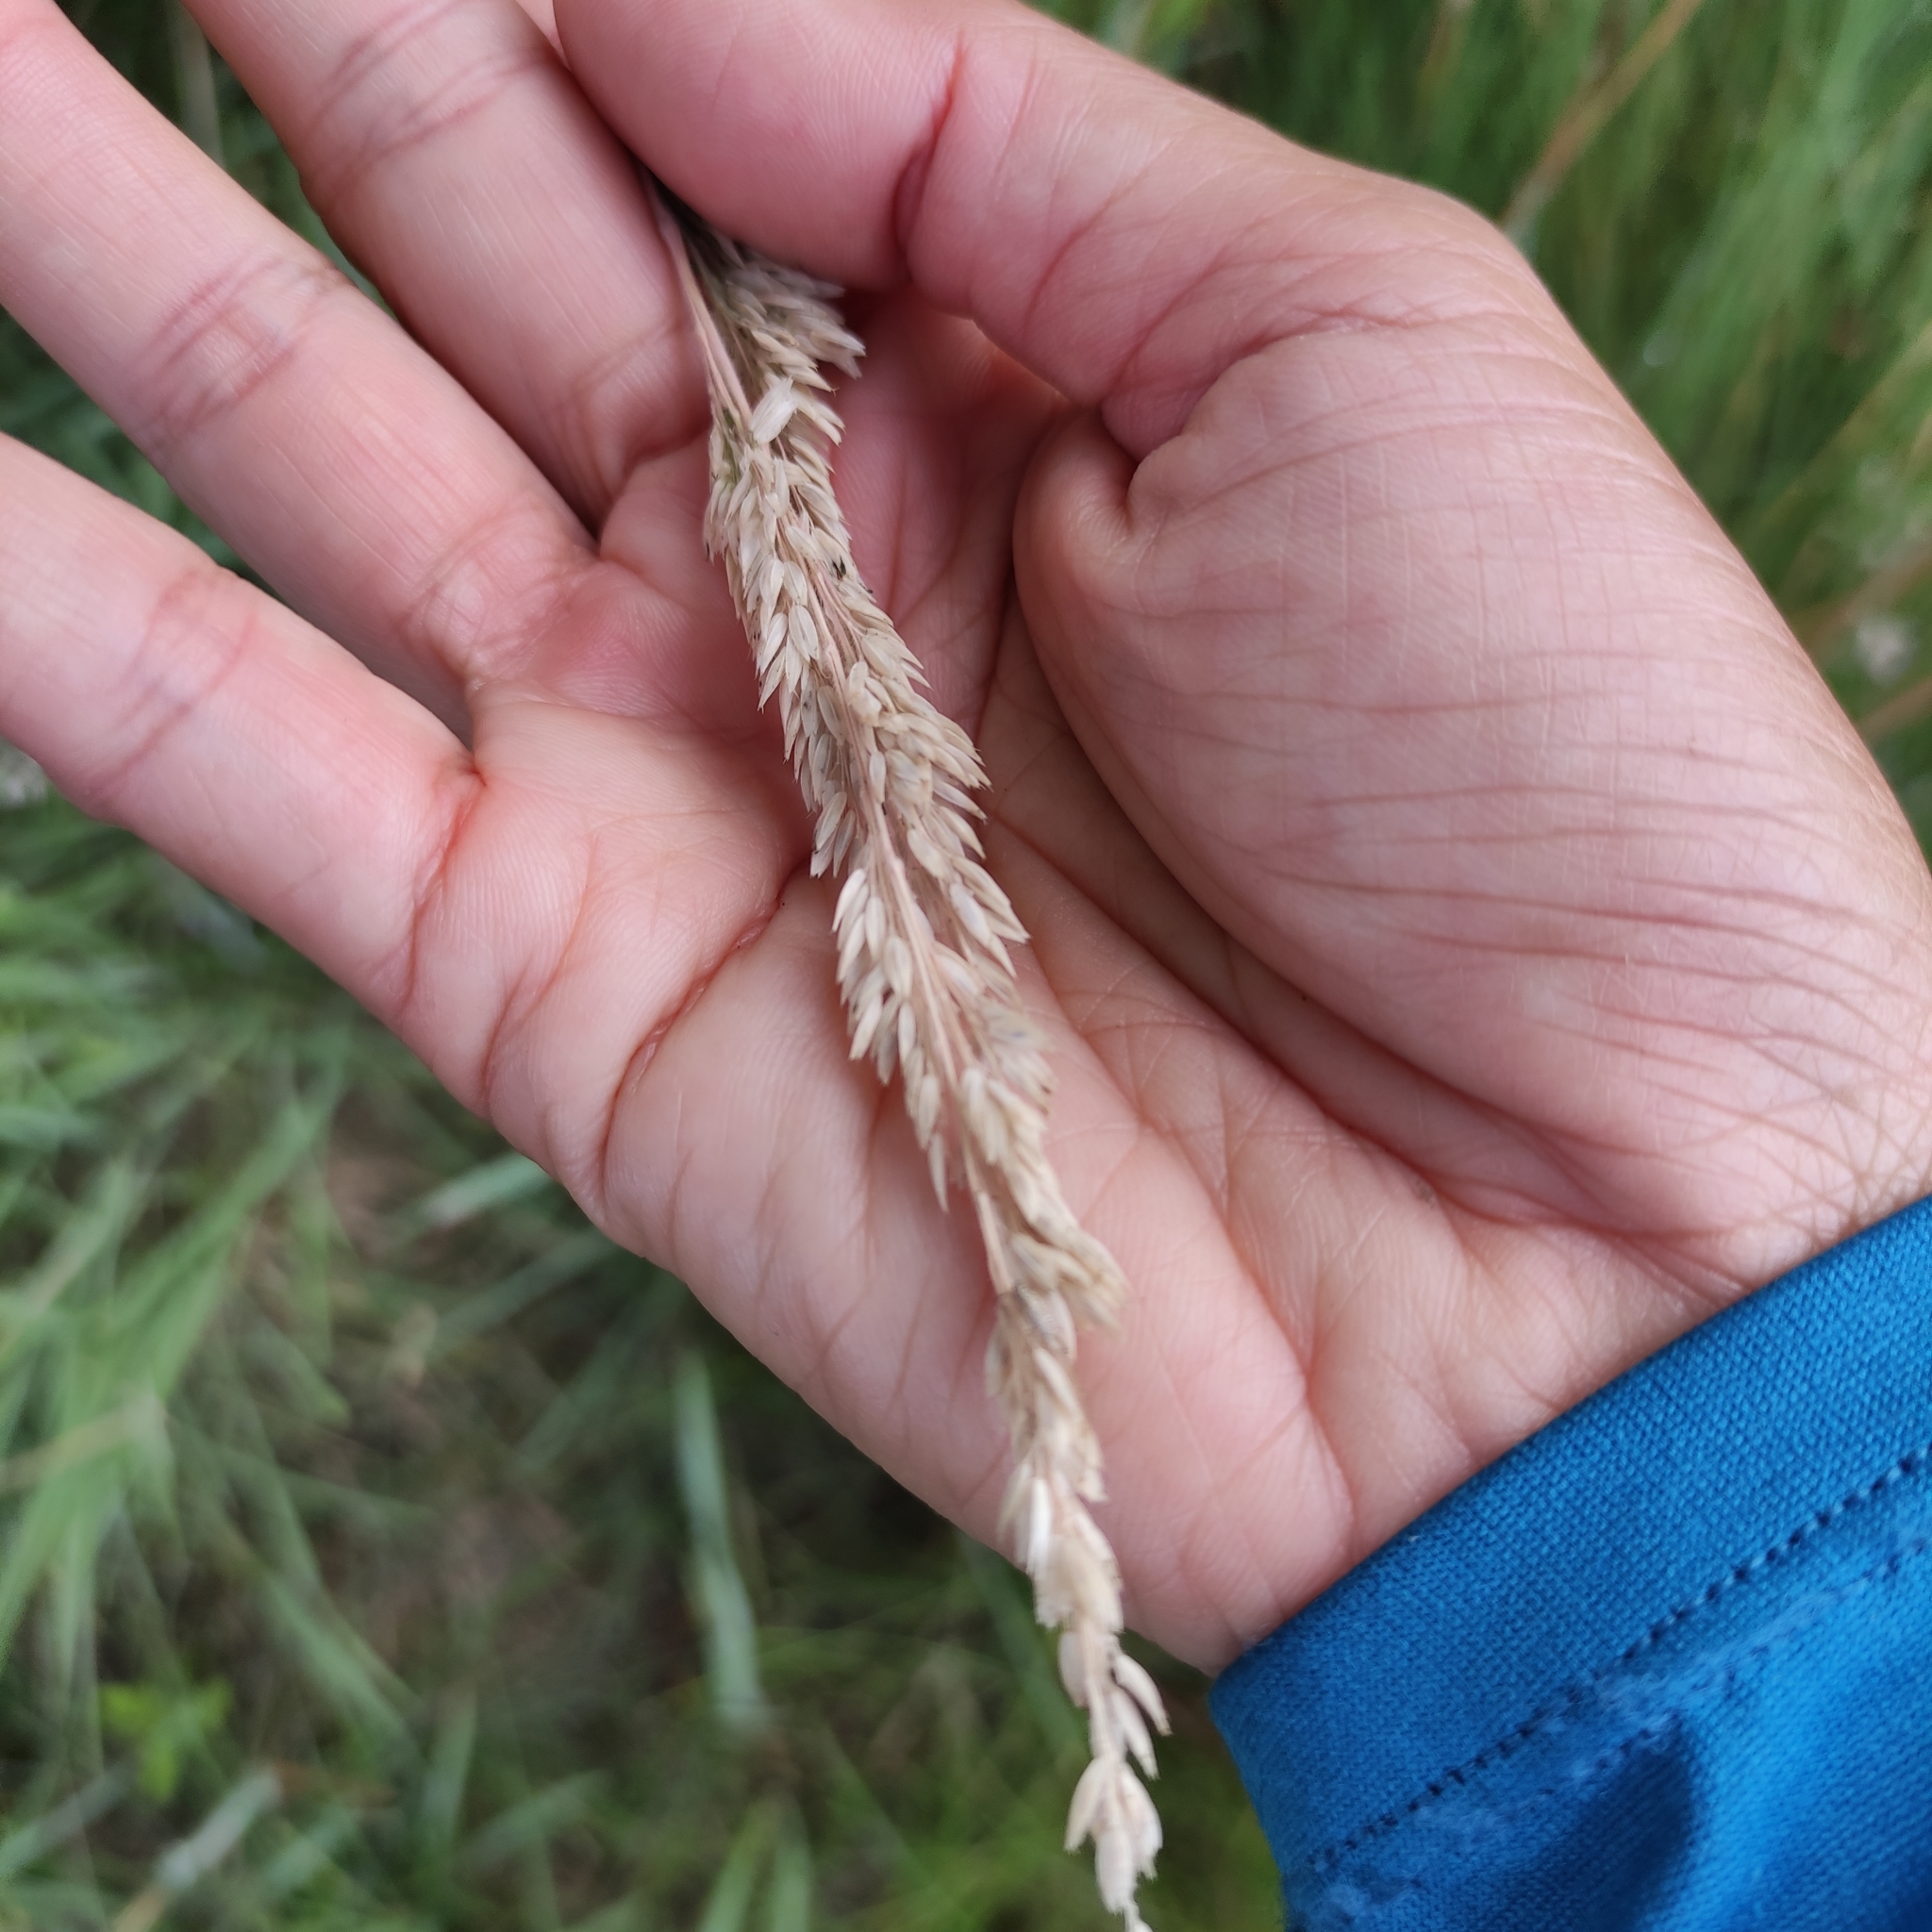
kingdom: Plantae
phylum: Tracheophyta
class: Liliopsida
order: Poales
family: Poaceae
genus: Holcus
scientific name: Holcus lanatus
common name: Yorkshire-fog
